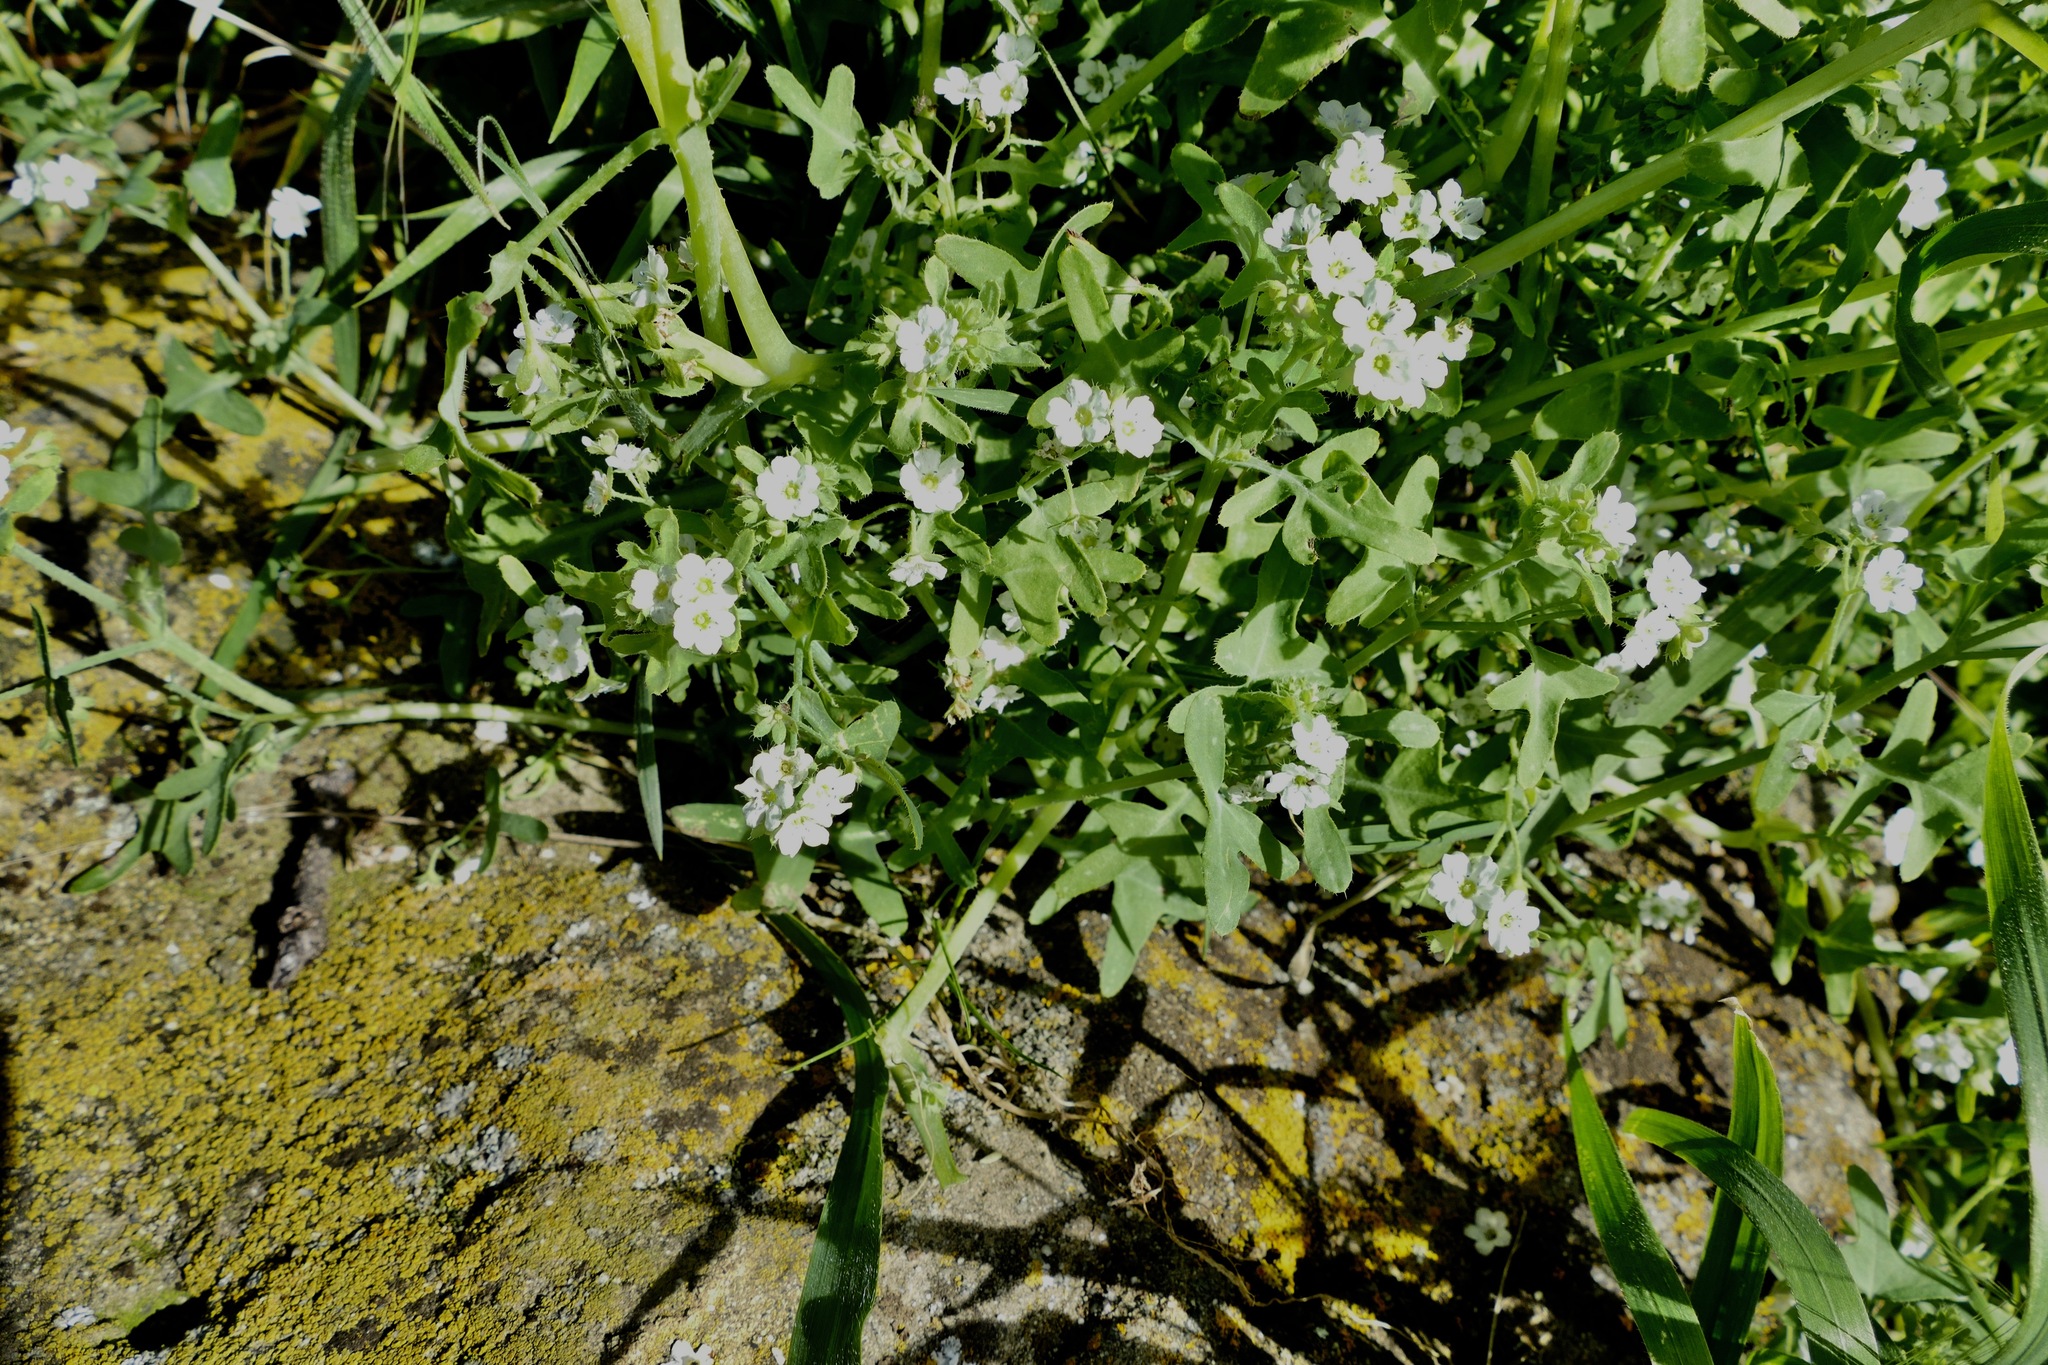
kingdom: Plantae
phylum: Tracheophyta
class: Magnoliopsida
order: Boraginales
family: Hydrophyllaceae
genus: Pholistoma
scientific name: Pholistoma membranaceum
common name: White fiesta-flower
